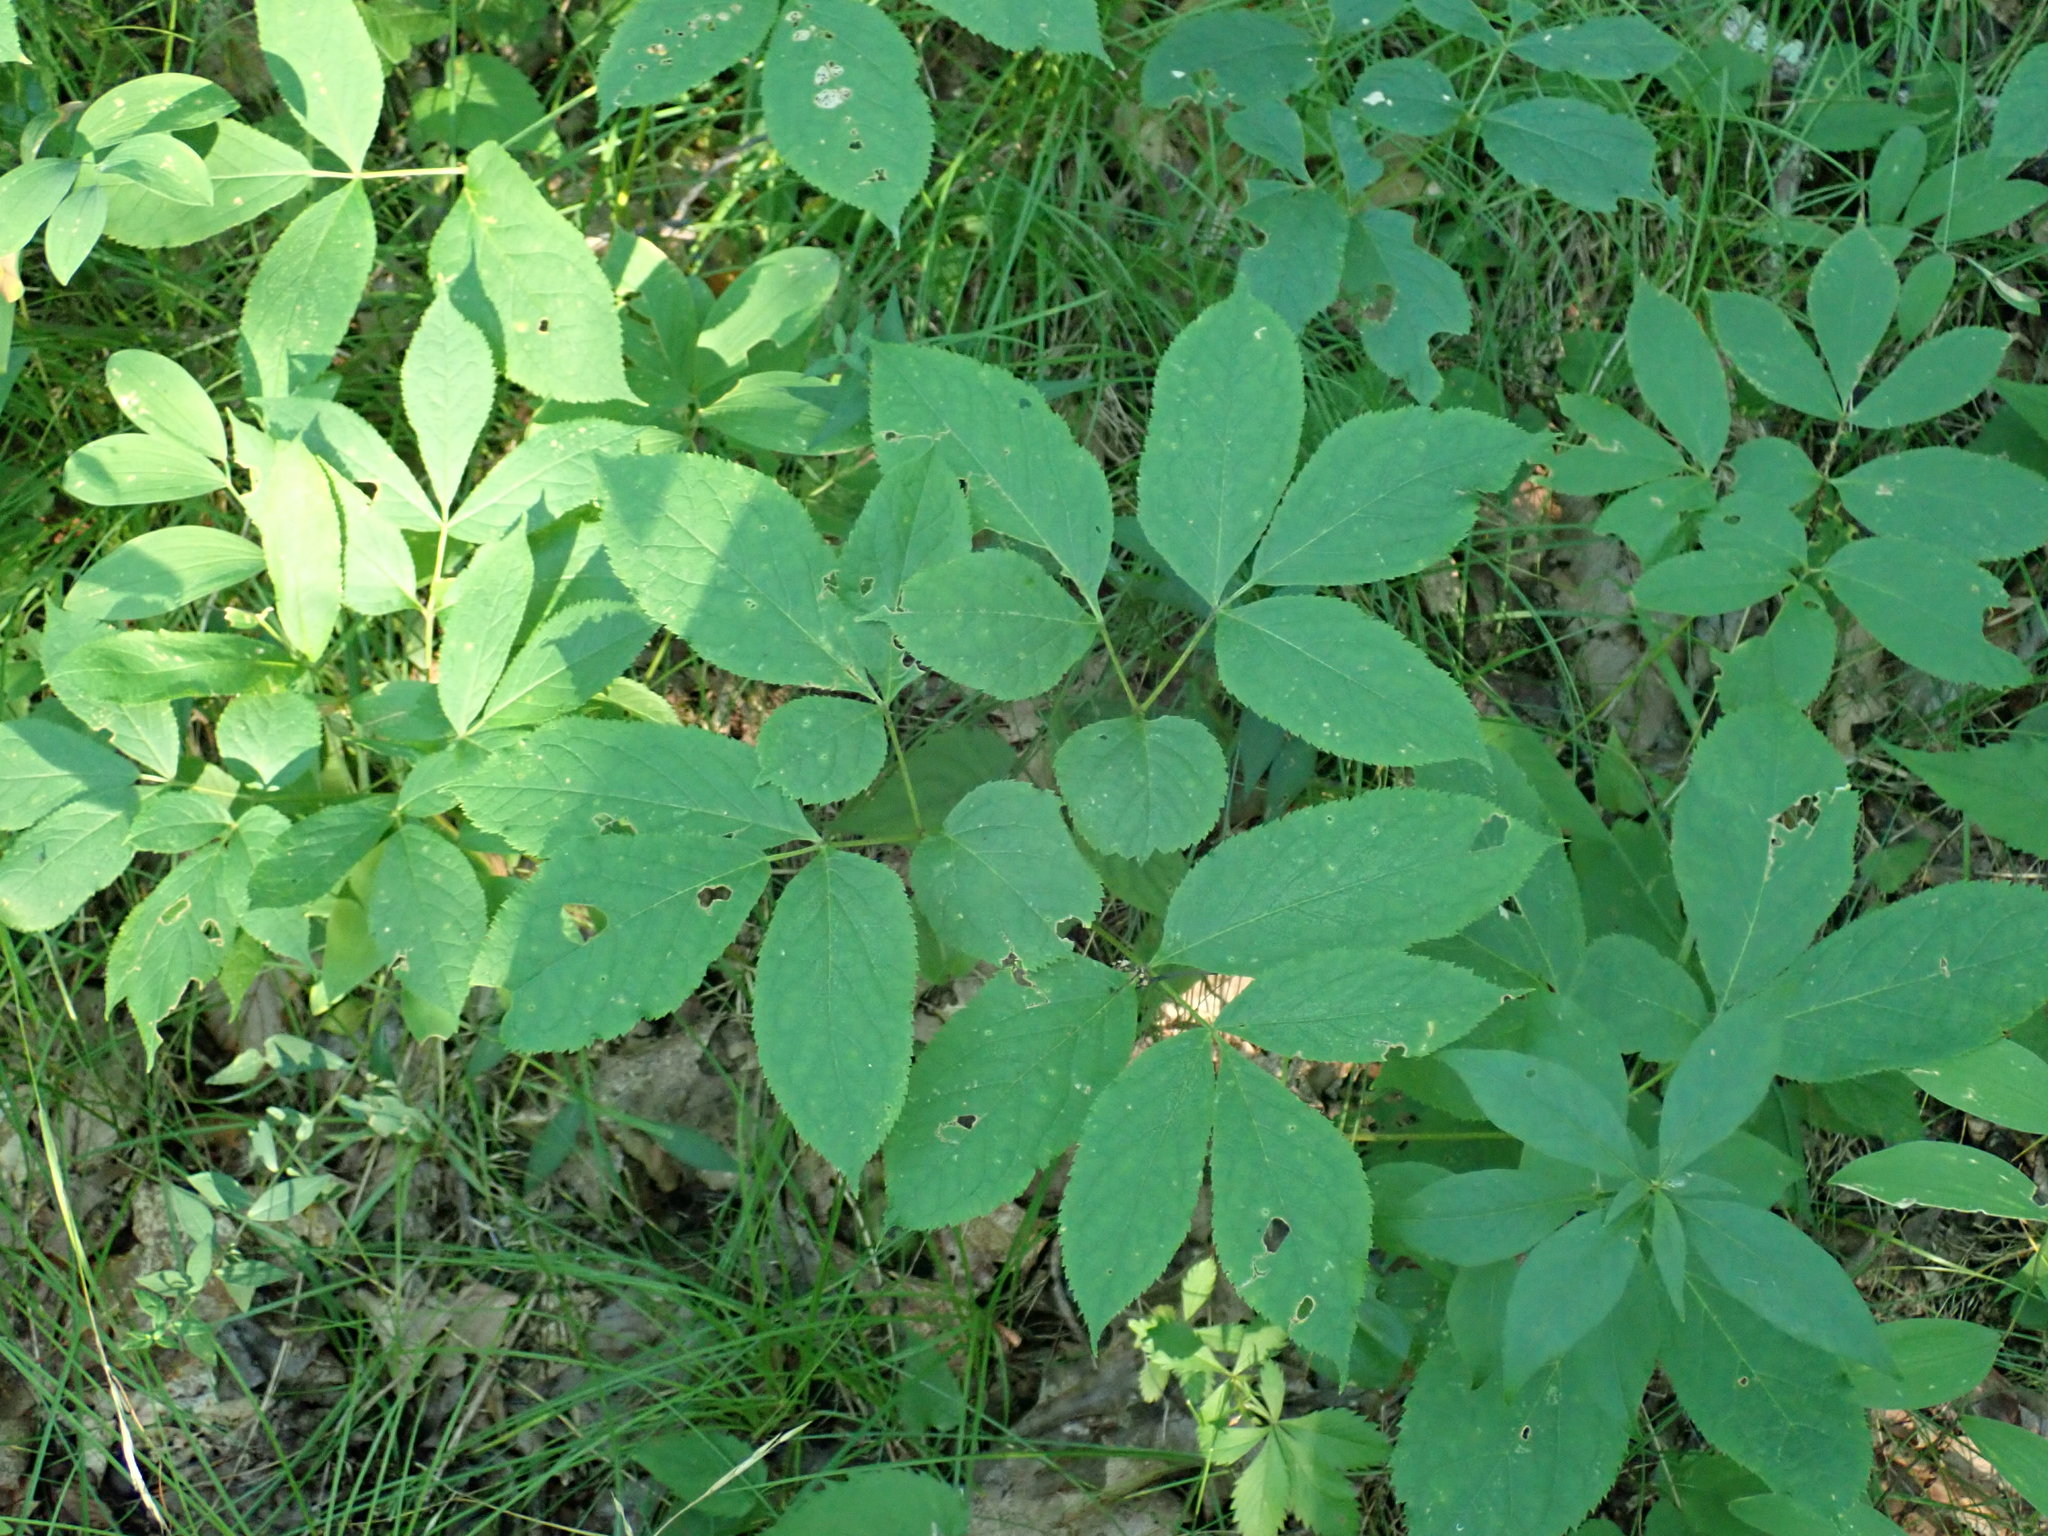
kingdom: Plantae
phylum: Tracheophyta
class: Magnoliopsida
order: Apiales
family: Araliaceae
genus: Aralia
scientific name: Aralia nudicaulis
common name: Wild sarsaparilla
